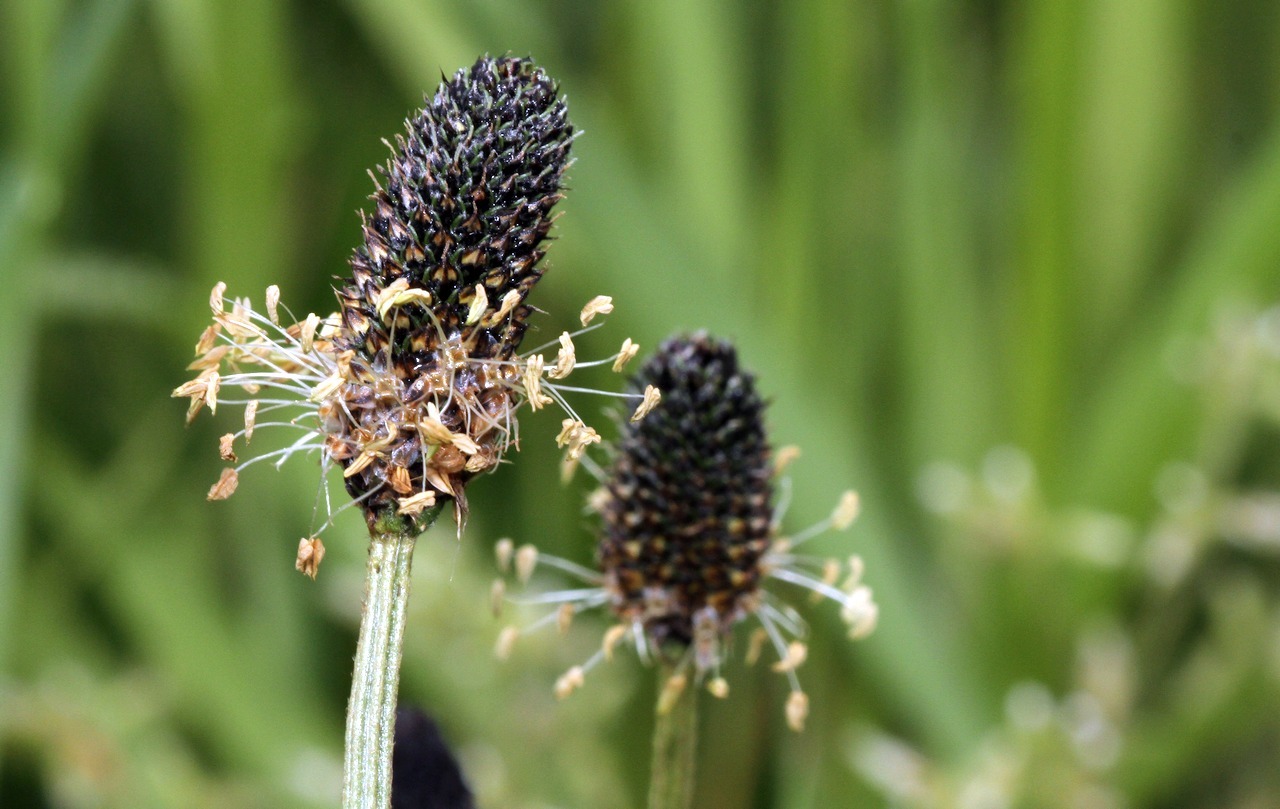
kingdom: Plantae
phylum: Tracheophyta
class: Magnoliopsida
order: Lamiales
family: Plantaginaceae
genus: Plantago
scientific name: Plantago lanceolata
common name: Ribwort plantain
